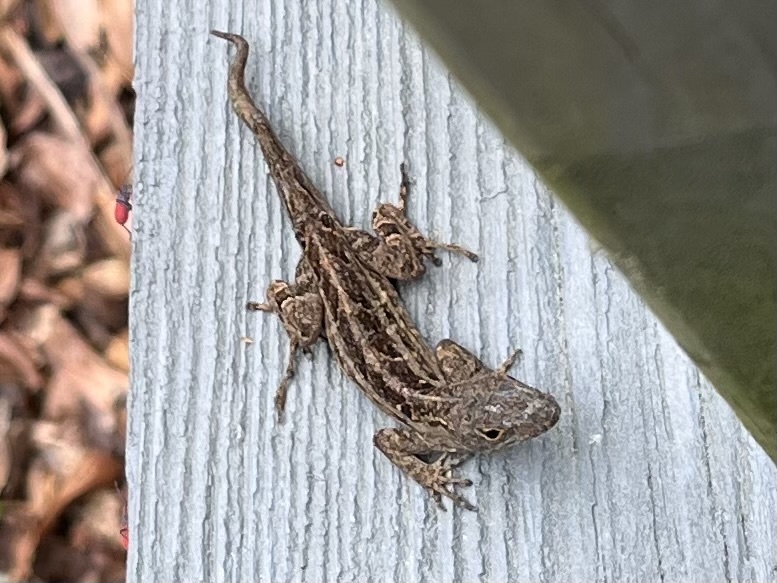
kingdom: Animalia
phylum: Chordata
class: Squamata
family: Dactyloidae
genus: Anolis
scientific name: Anolis sagrei
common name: Brown anole
